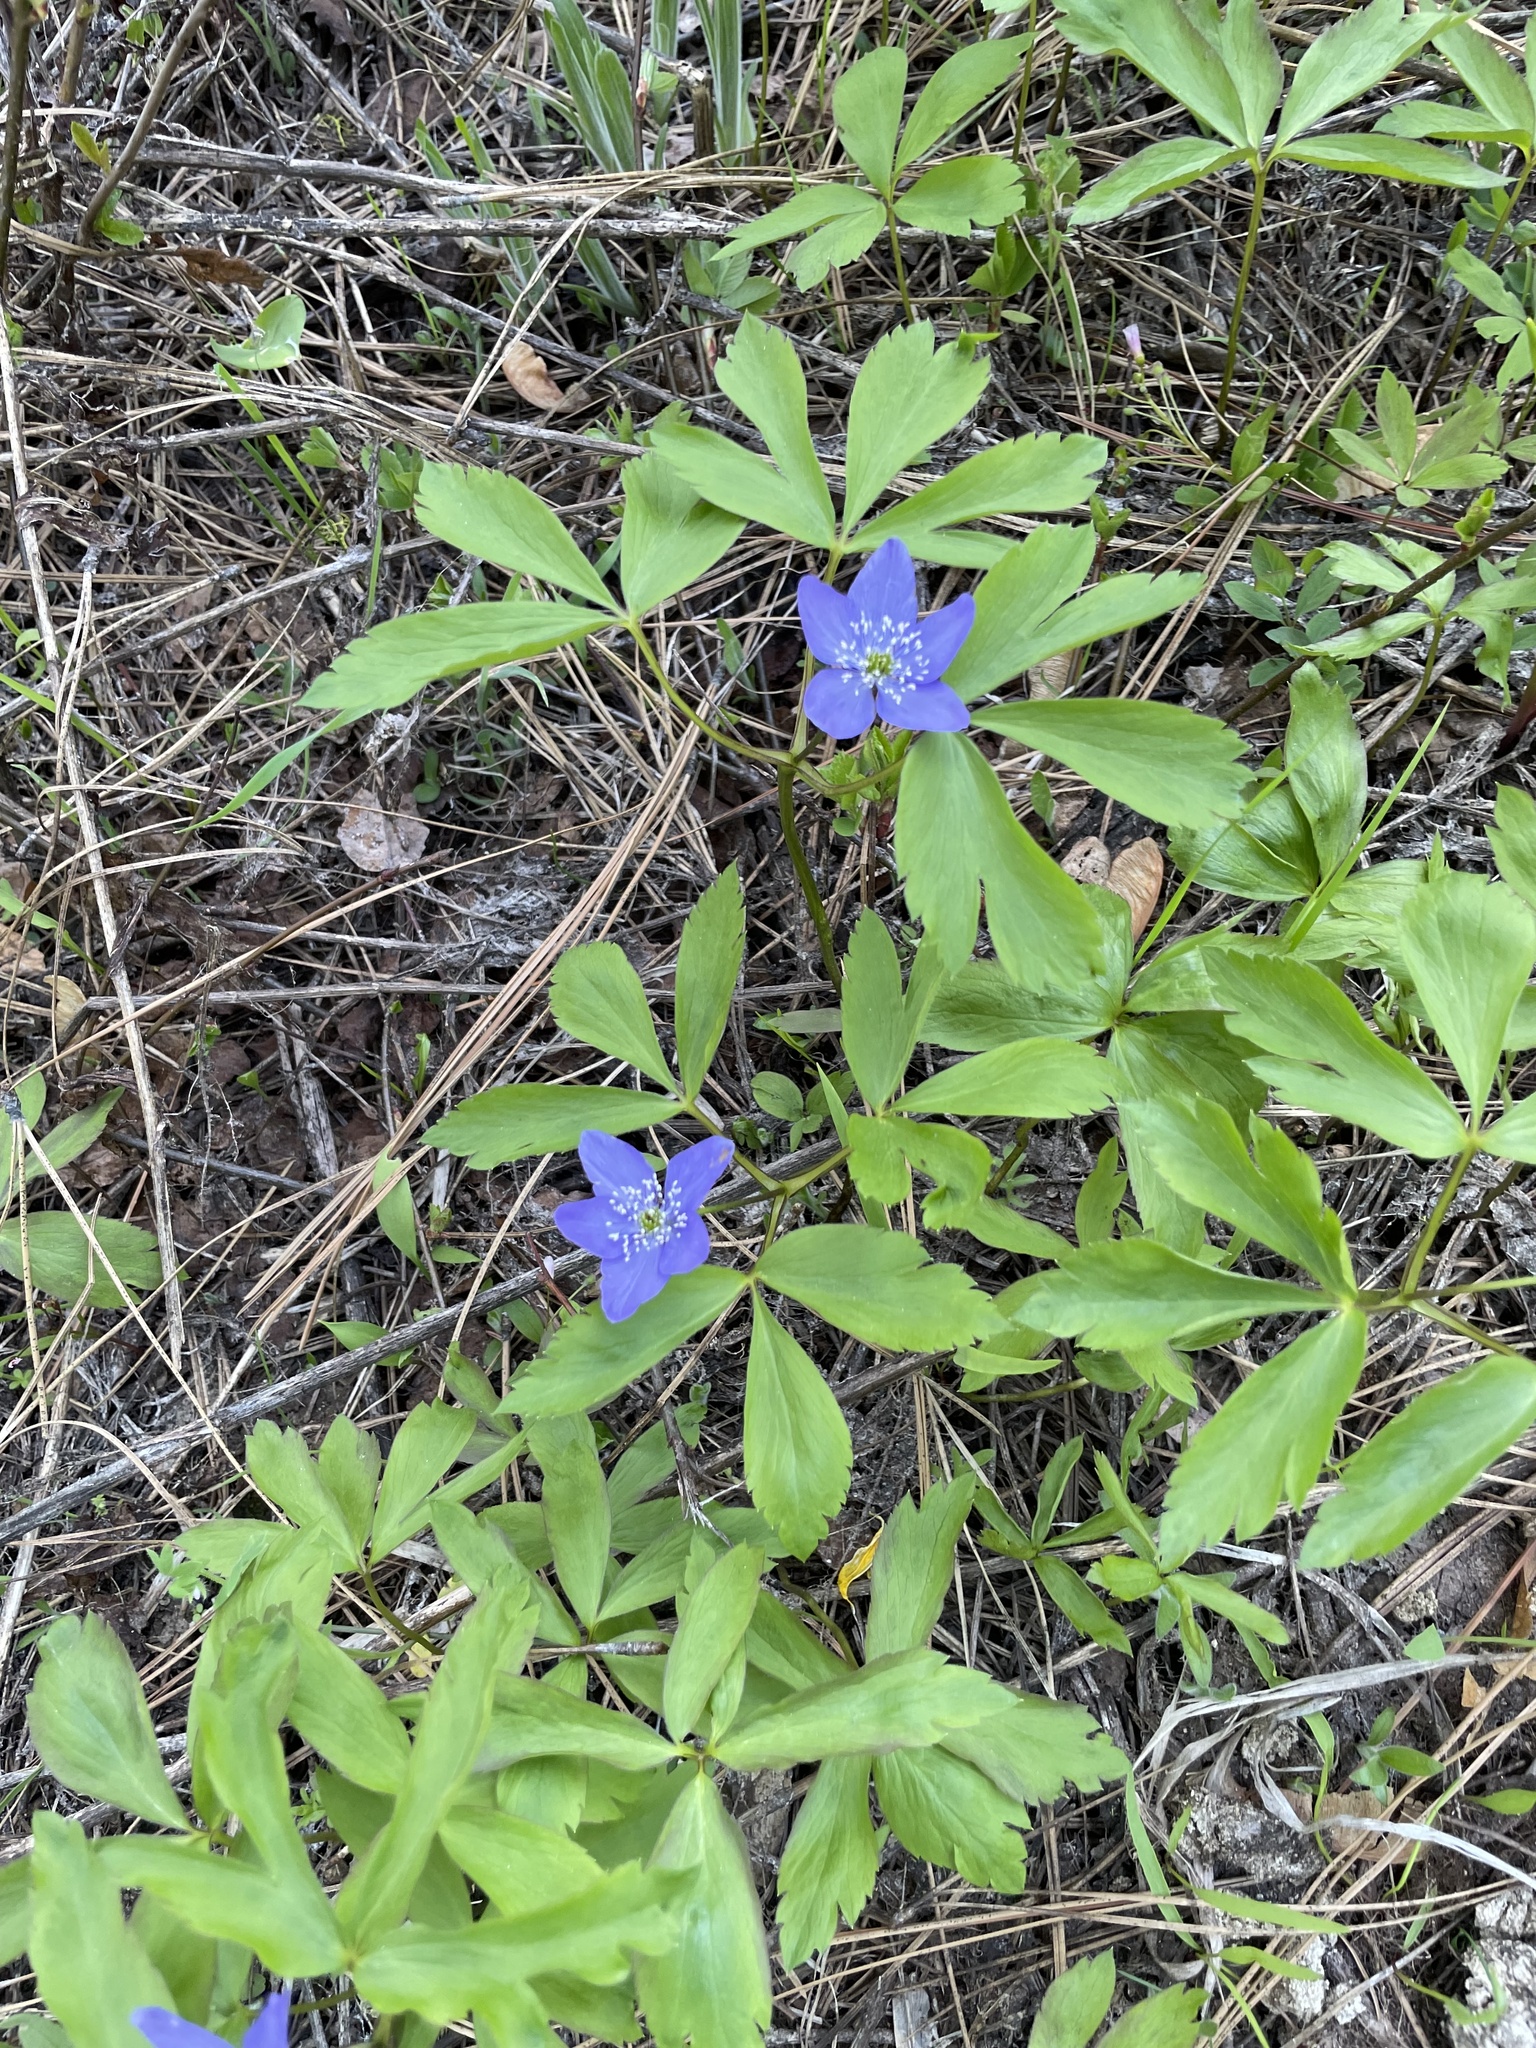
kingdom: Plantae
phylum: Tracheophyta
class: Magnoliopsida
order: Ranunculales
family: Ranunculaceae
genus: Anemone
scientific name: Anemone oregana
